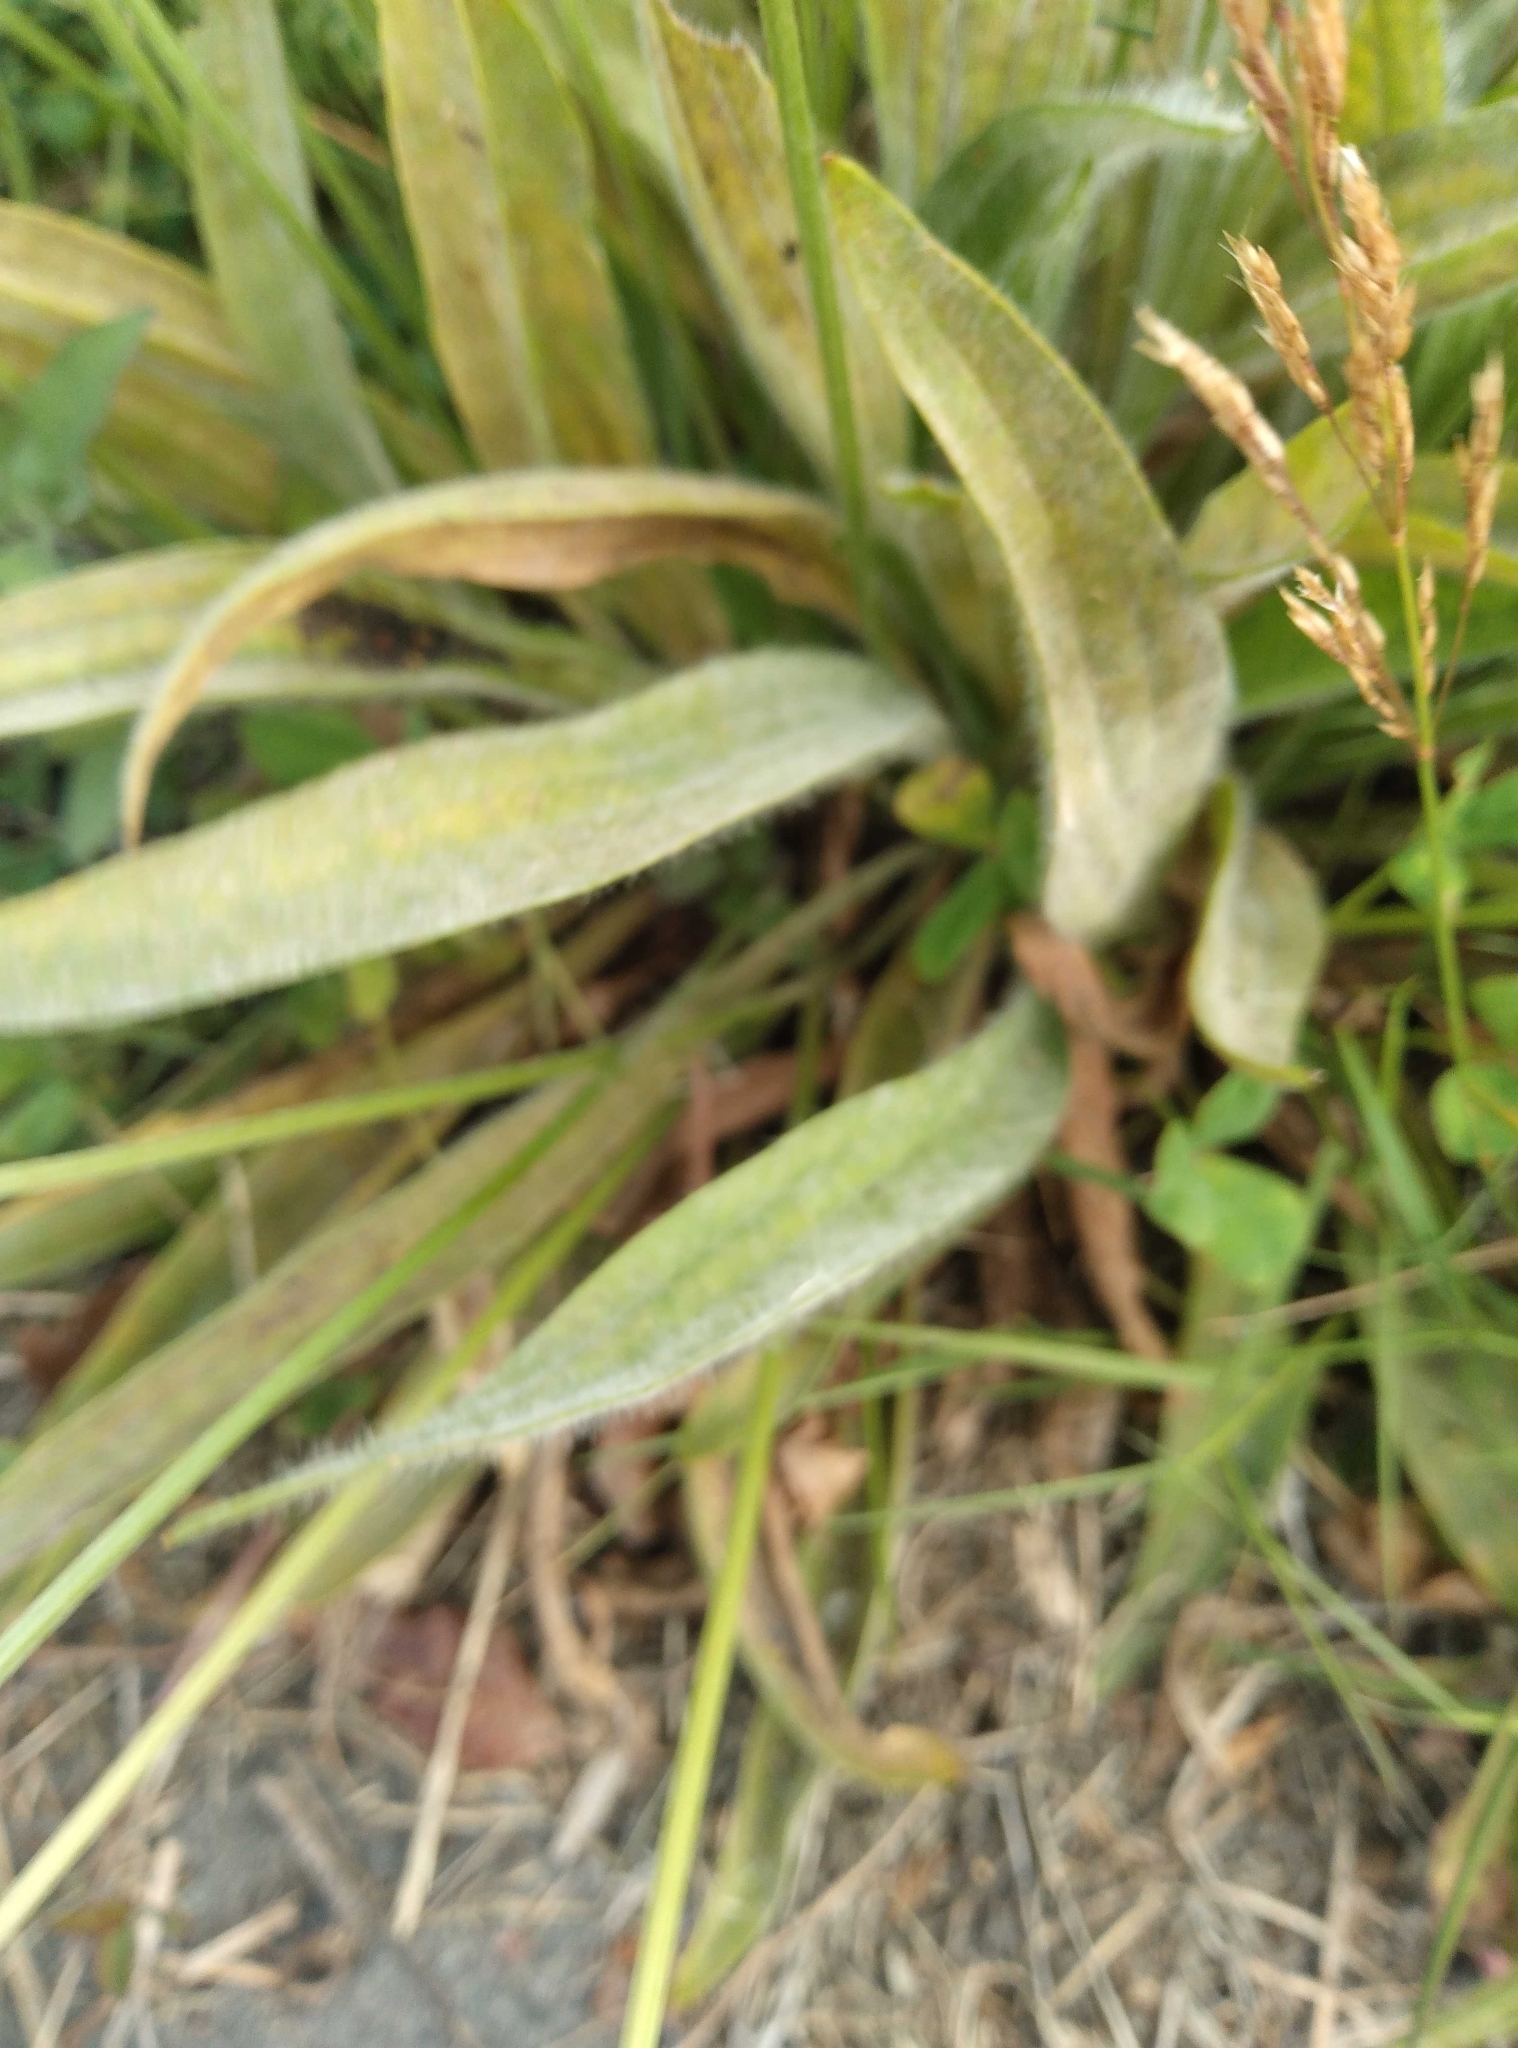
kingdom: Plantae
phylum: Tracheophyta
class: Magnoliopsida
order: Lamiales
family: Plantaginaceae
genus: Plantago
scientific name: Plantago lanceolata
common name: Ribwort plantain
